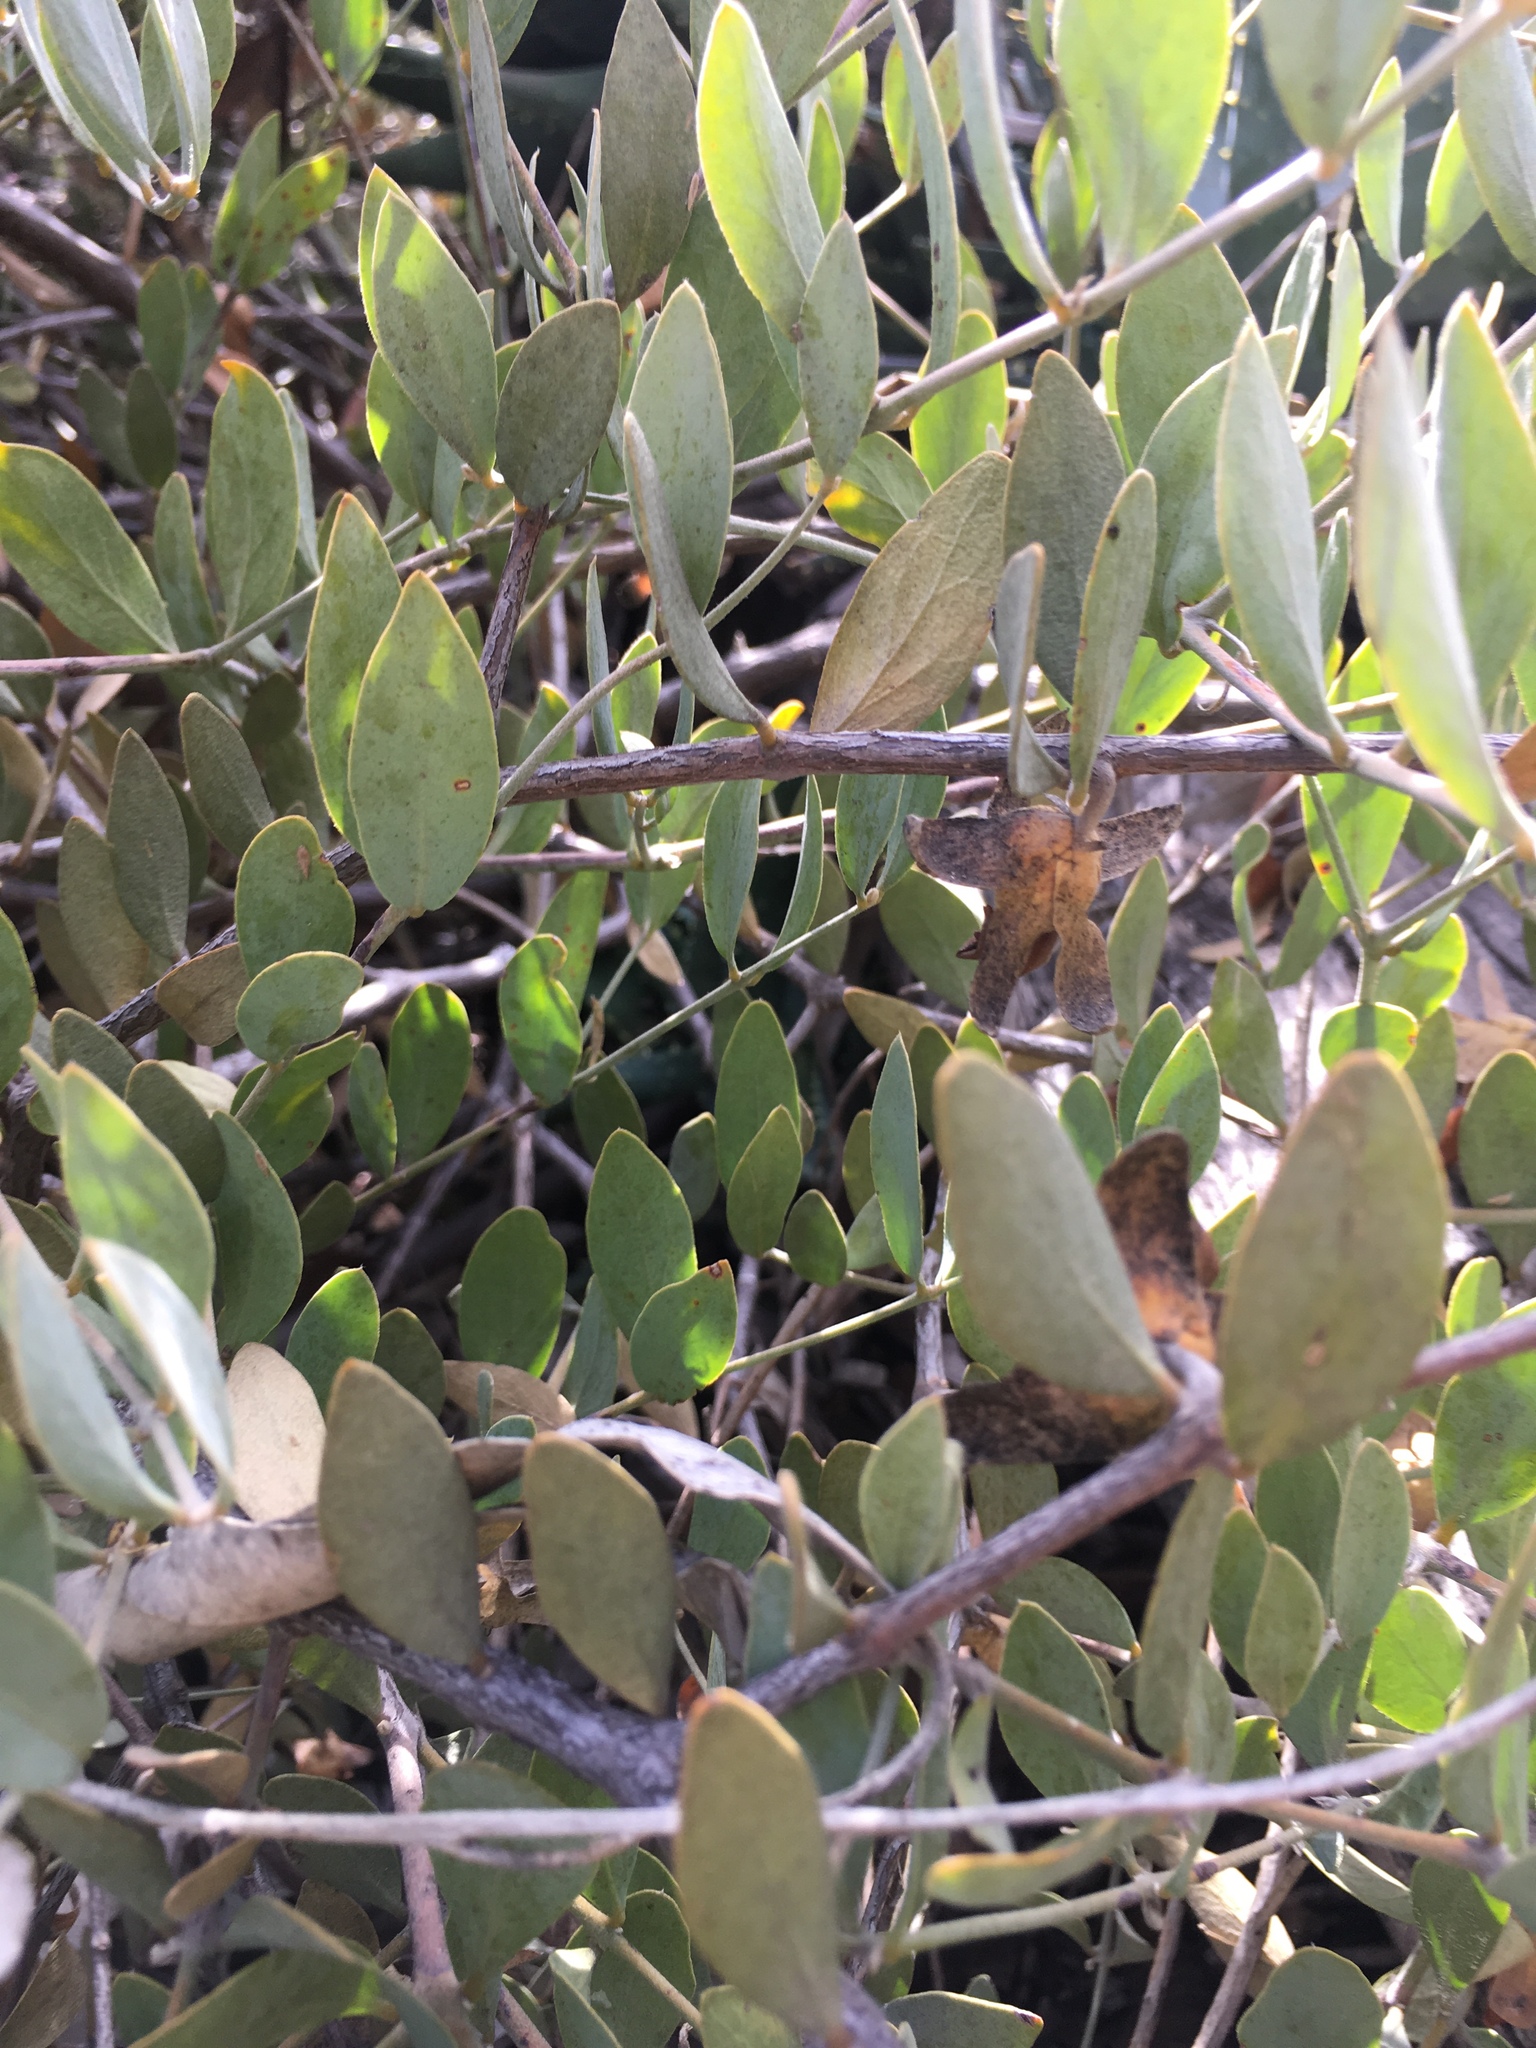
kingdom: Plantae
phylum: Tracheophyta
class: Magnoliopsida
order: Caryophyllales
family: Simmondsiaceae
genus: Simmondsia
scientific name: Simmondsia chinensis
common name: Jojoba
